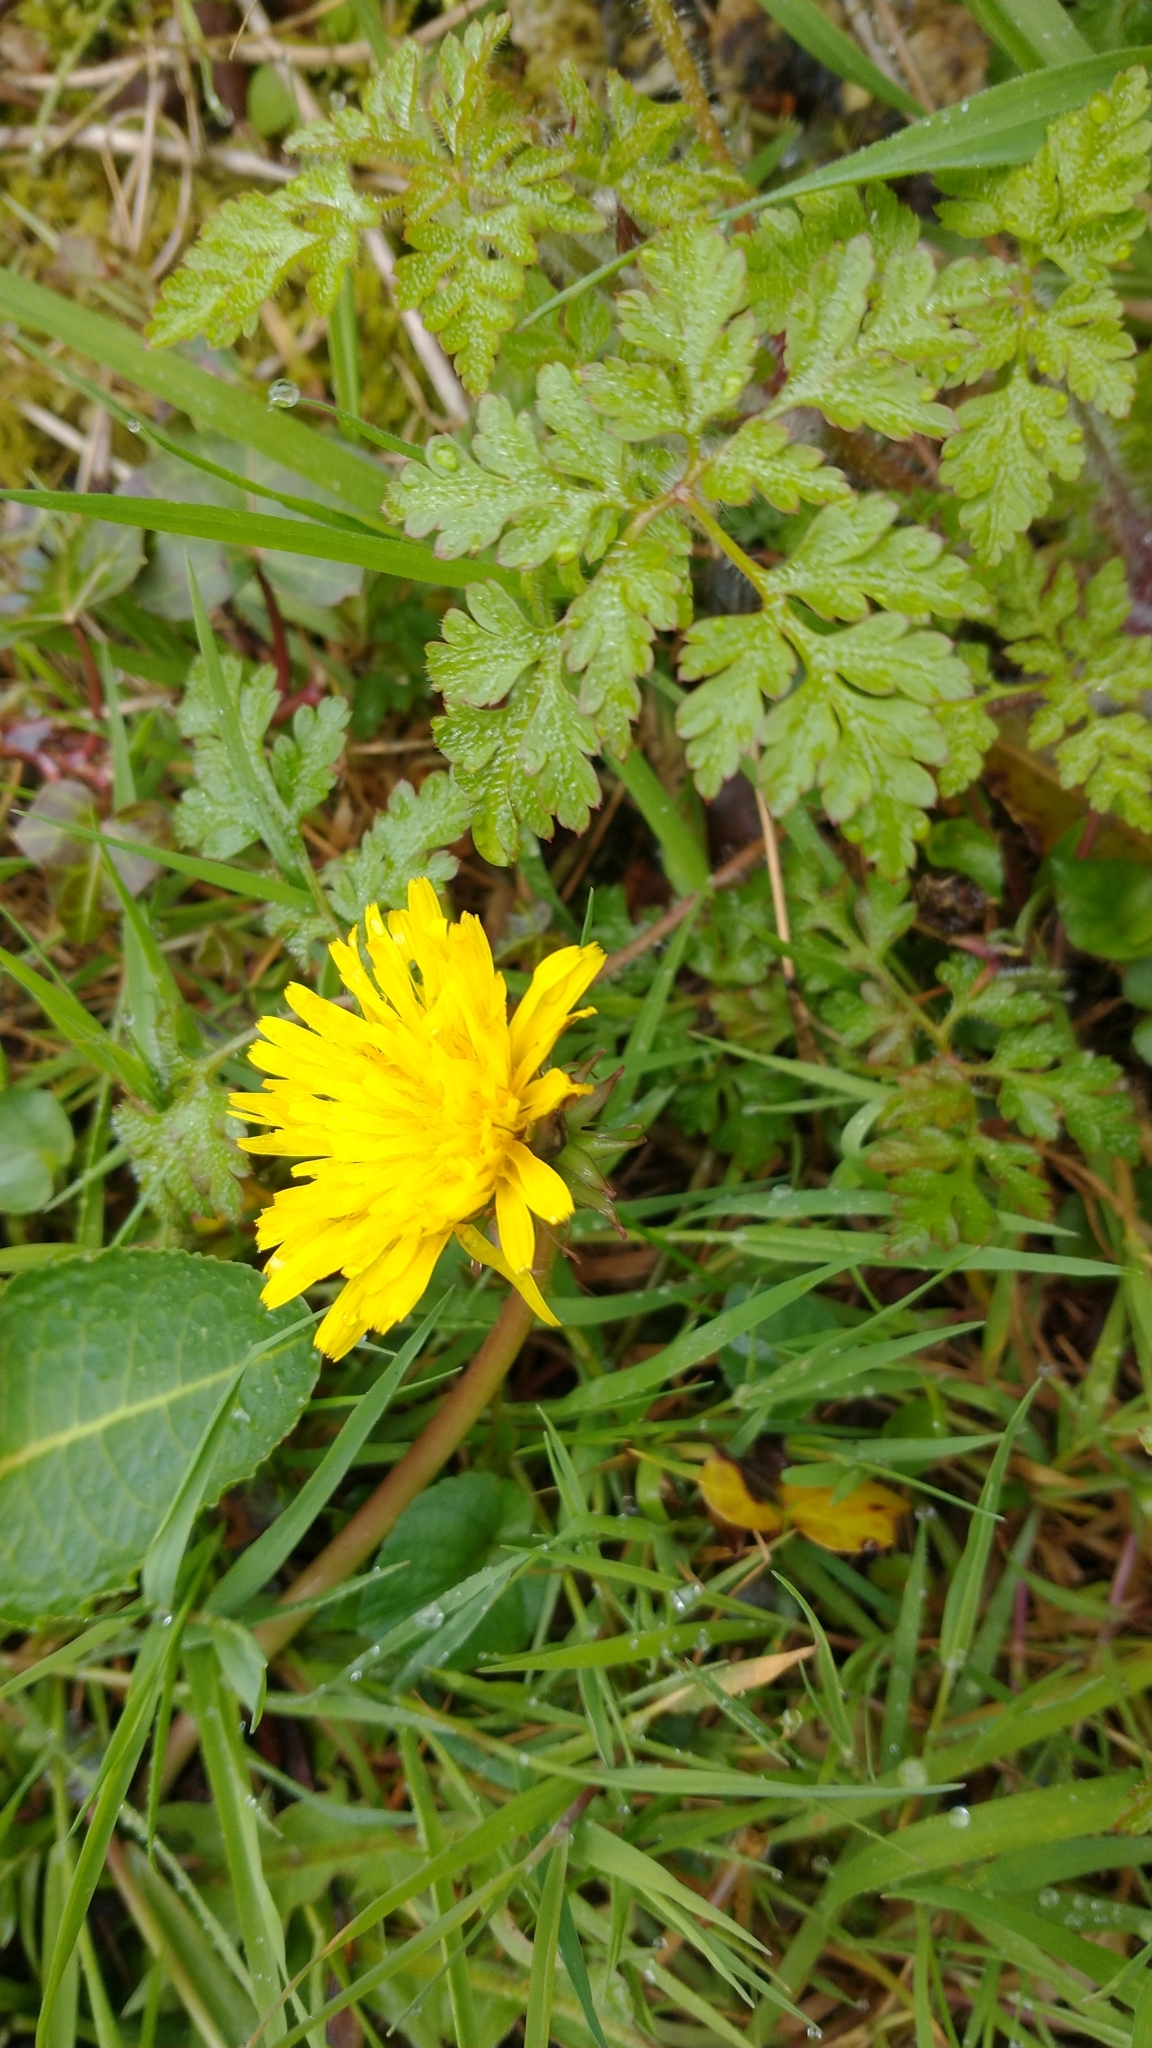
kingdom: Plantae
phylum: Tracheophyta
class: Magnoliopsida
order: Asterales
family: Asteraceae
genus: Taraxacum
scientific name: Taraxacum officinale
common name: Common dandelion
